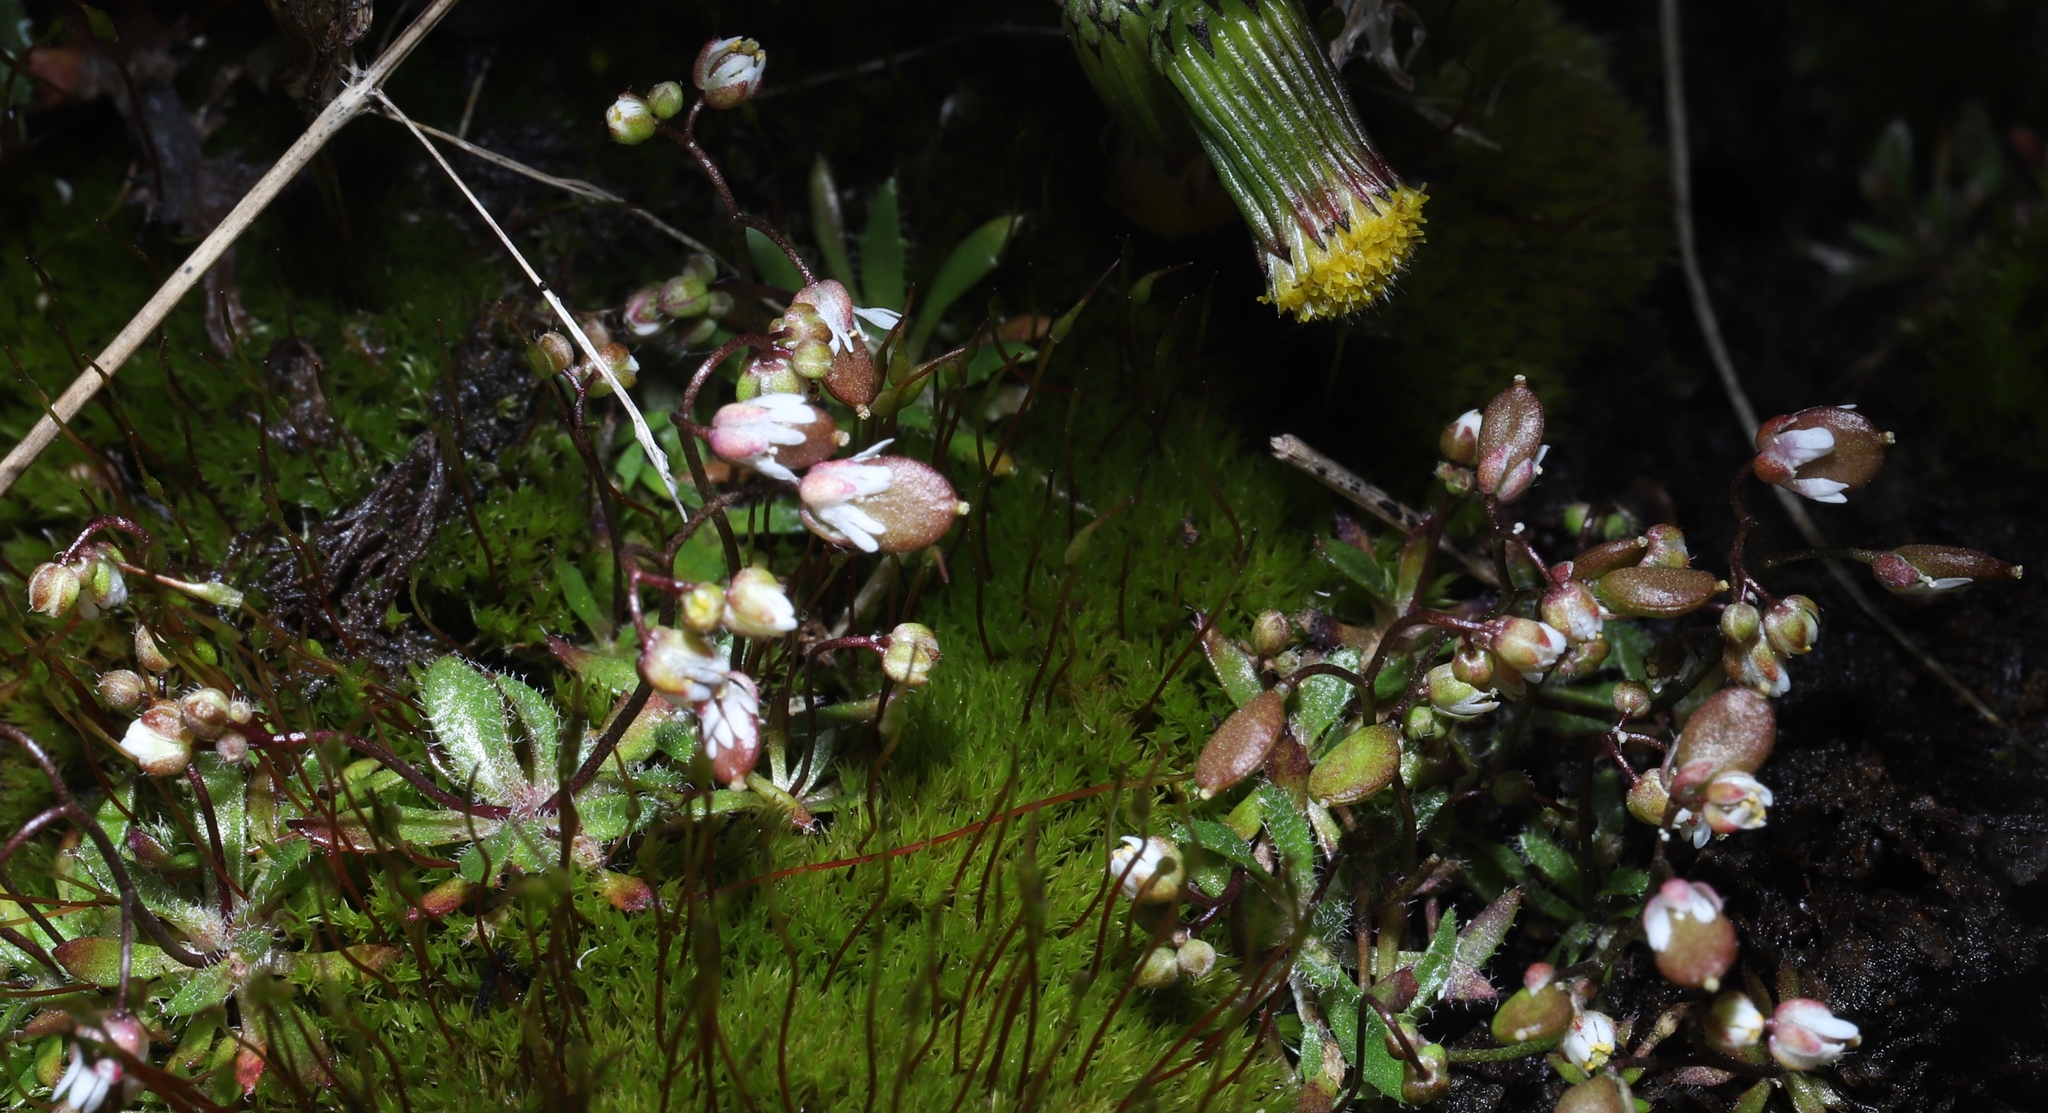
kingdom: Plantae
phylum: Tracheophyta
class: Magnoliopsida
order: Brassicales
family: Brassicaceae
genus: Draba
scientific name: Draba verna
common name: Spring draba
